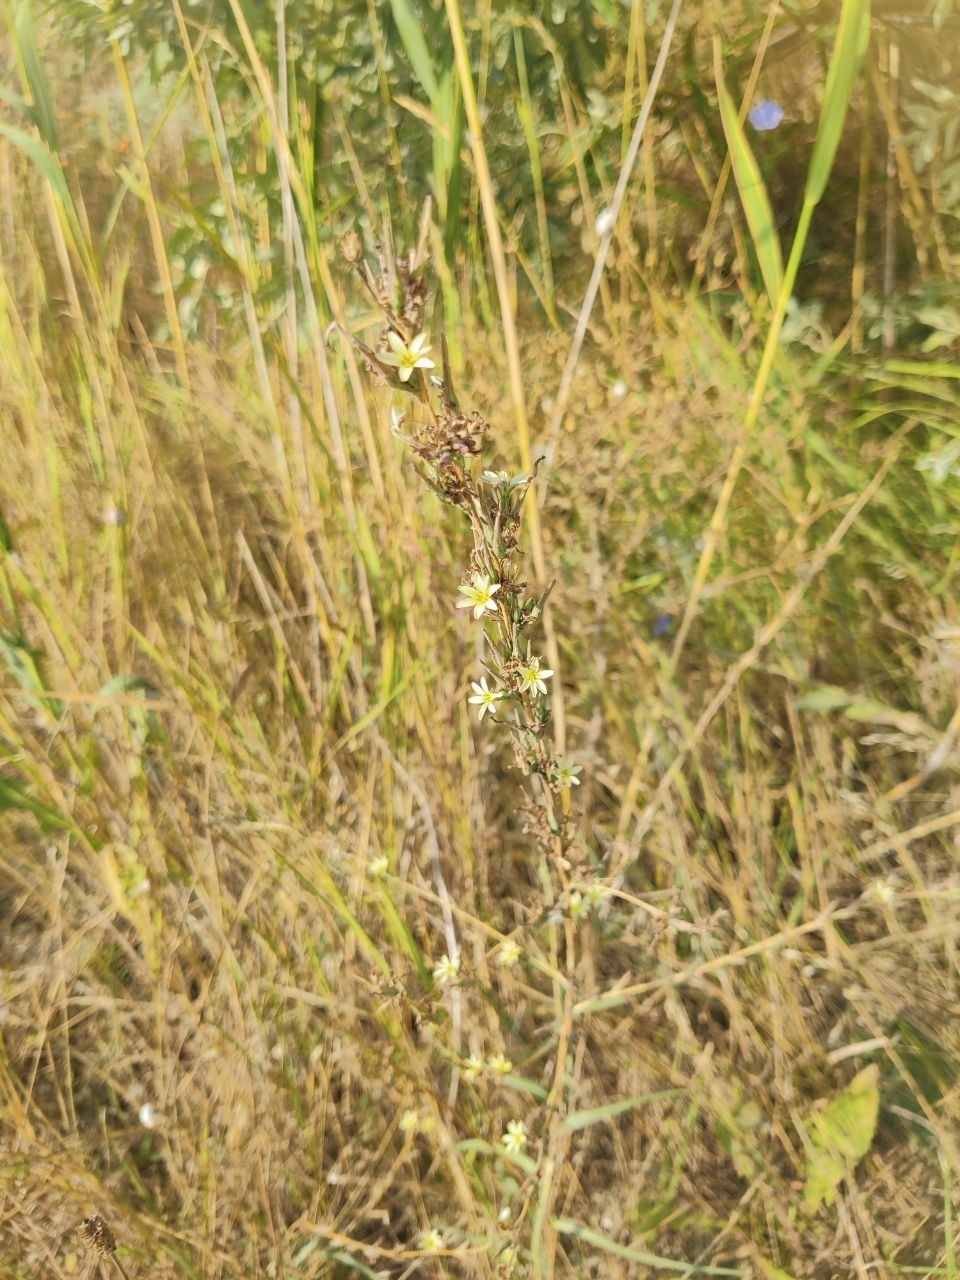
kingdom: Plantae
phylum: Tracheophyta
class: Magnoliopsida
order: Asterales
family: Asteraceae
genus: Lactuca
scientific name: Lactuca saligna
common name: Wild lettuce
